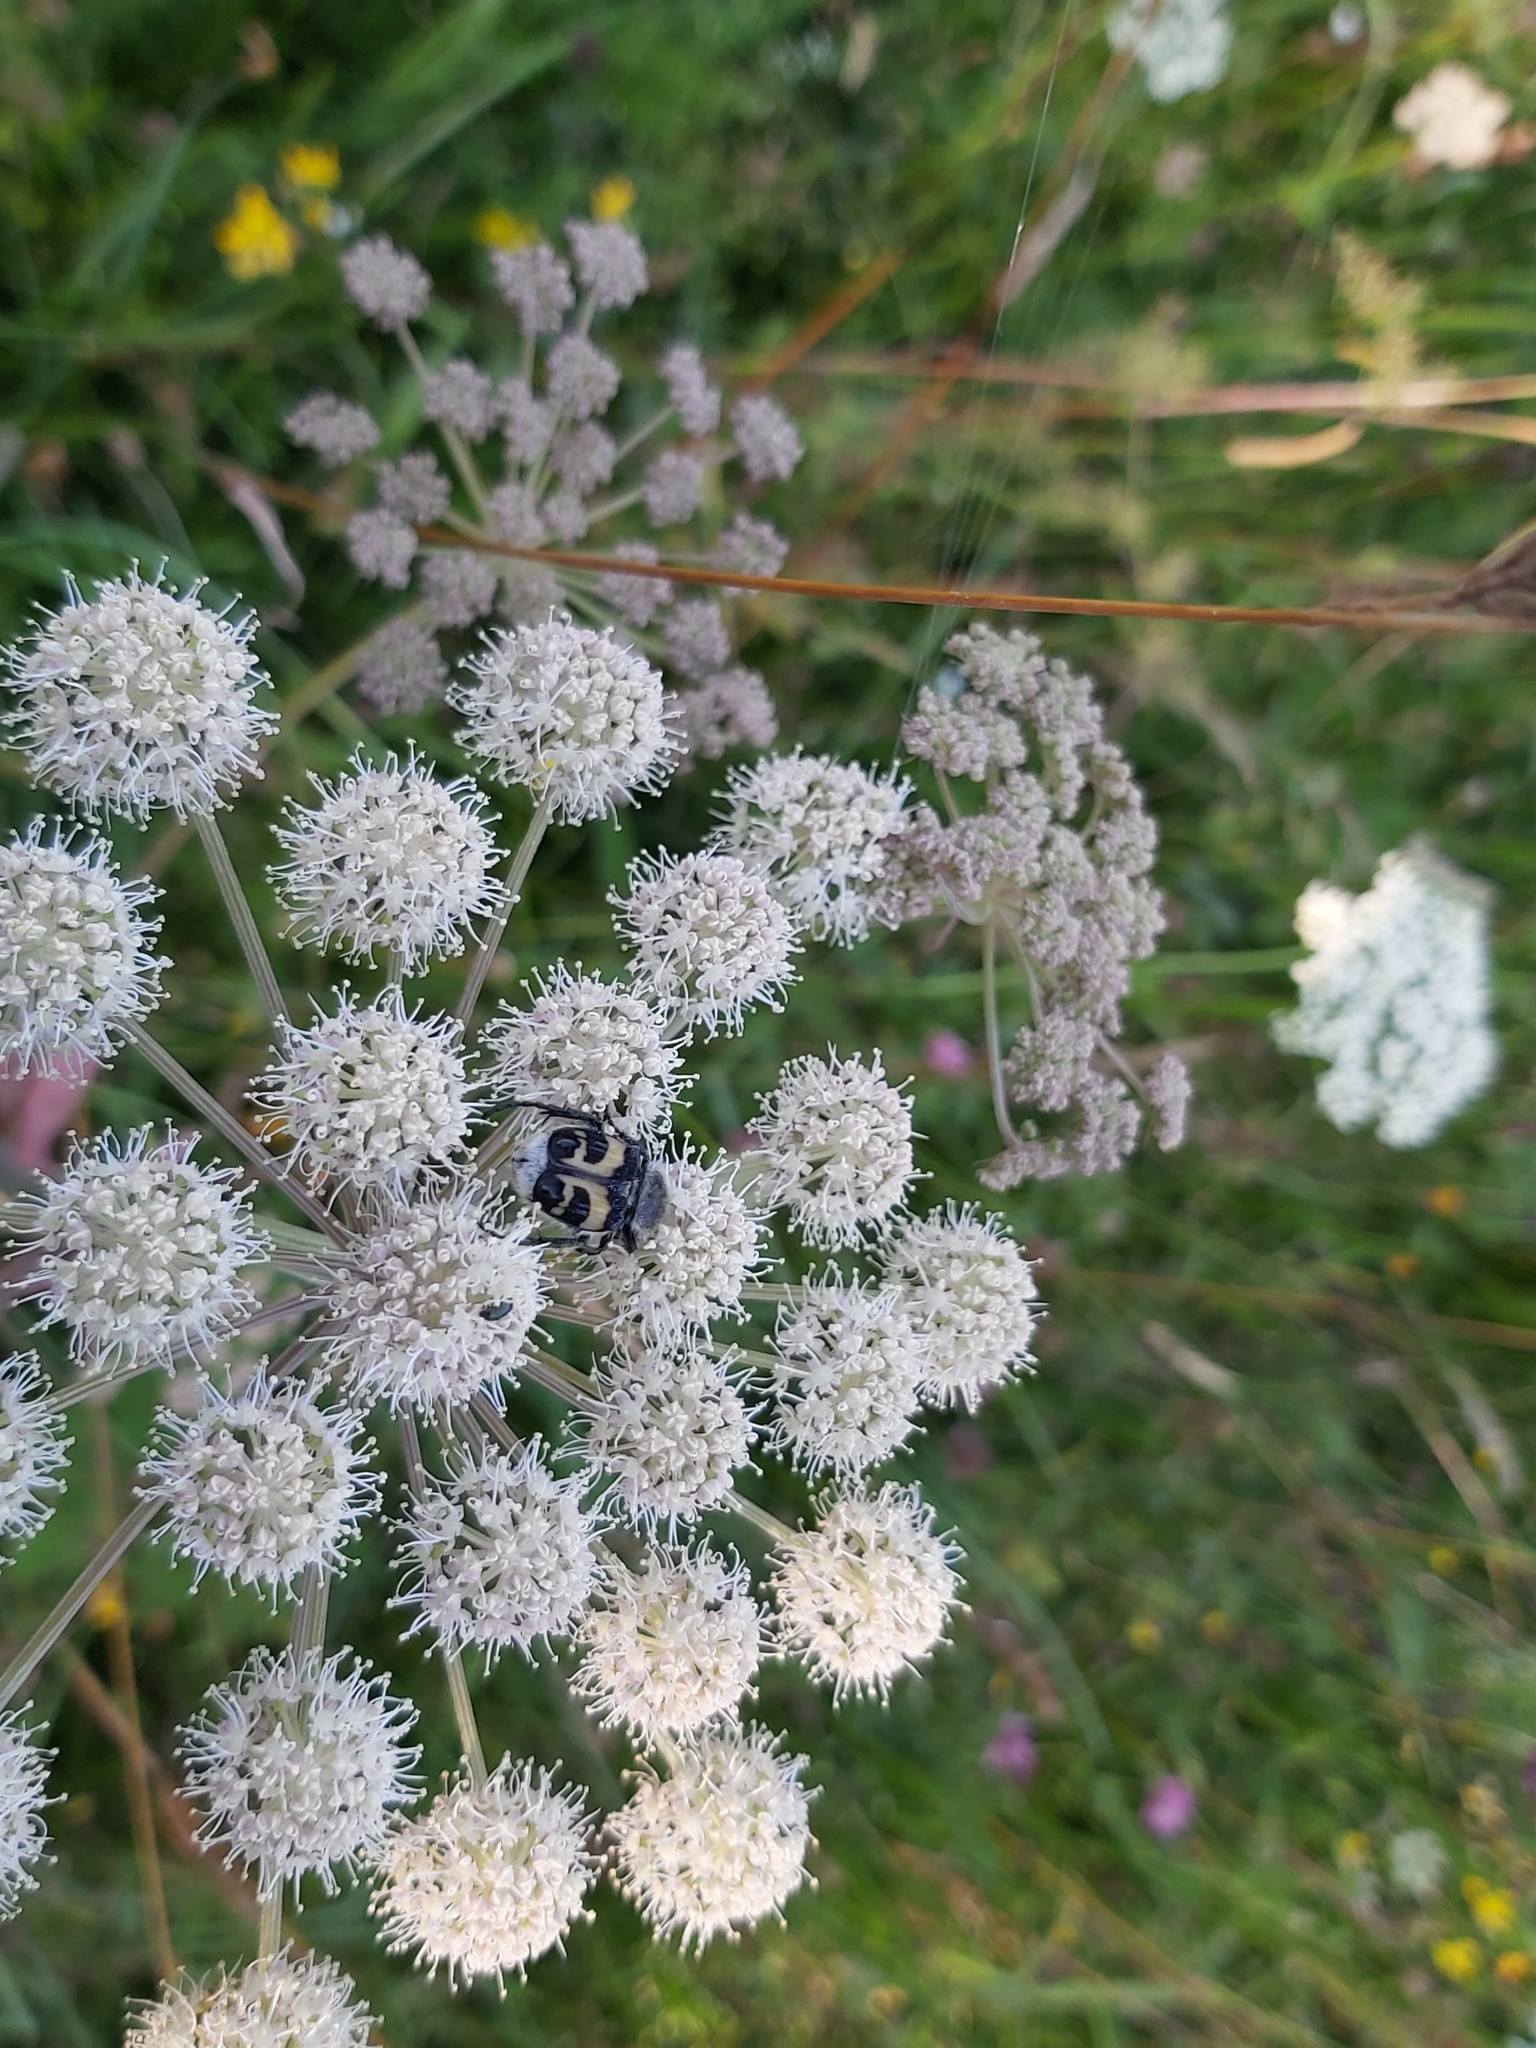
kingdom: Animalia
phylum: Arthropoda
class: Insecta
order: Coleoptera
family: Scarabaeidae
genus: Trichius
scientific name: Trichius fasciatus
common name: Bee beetle
